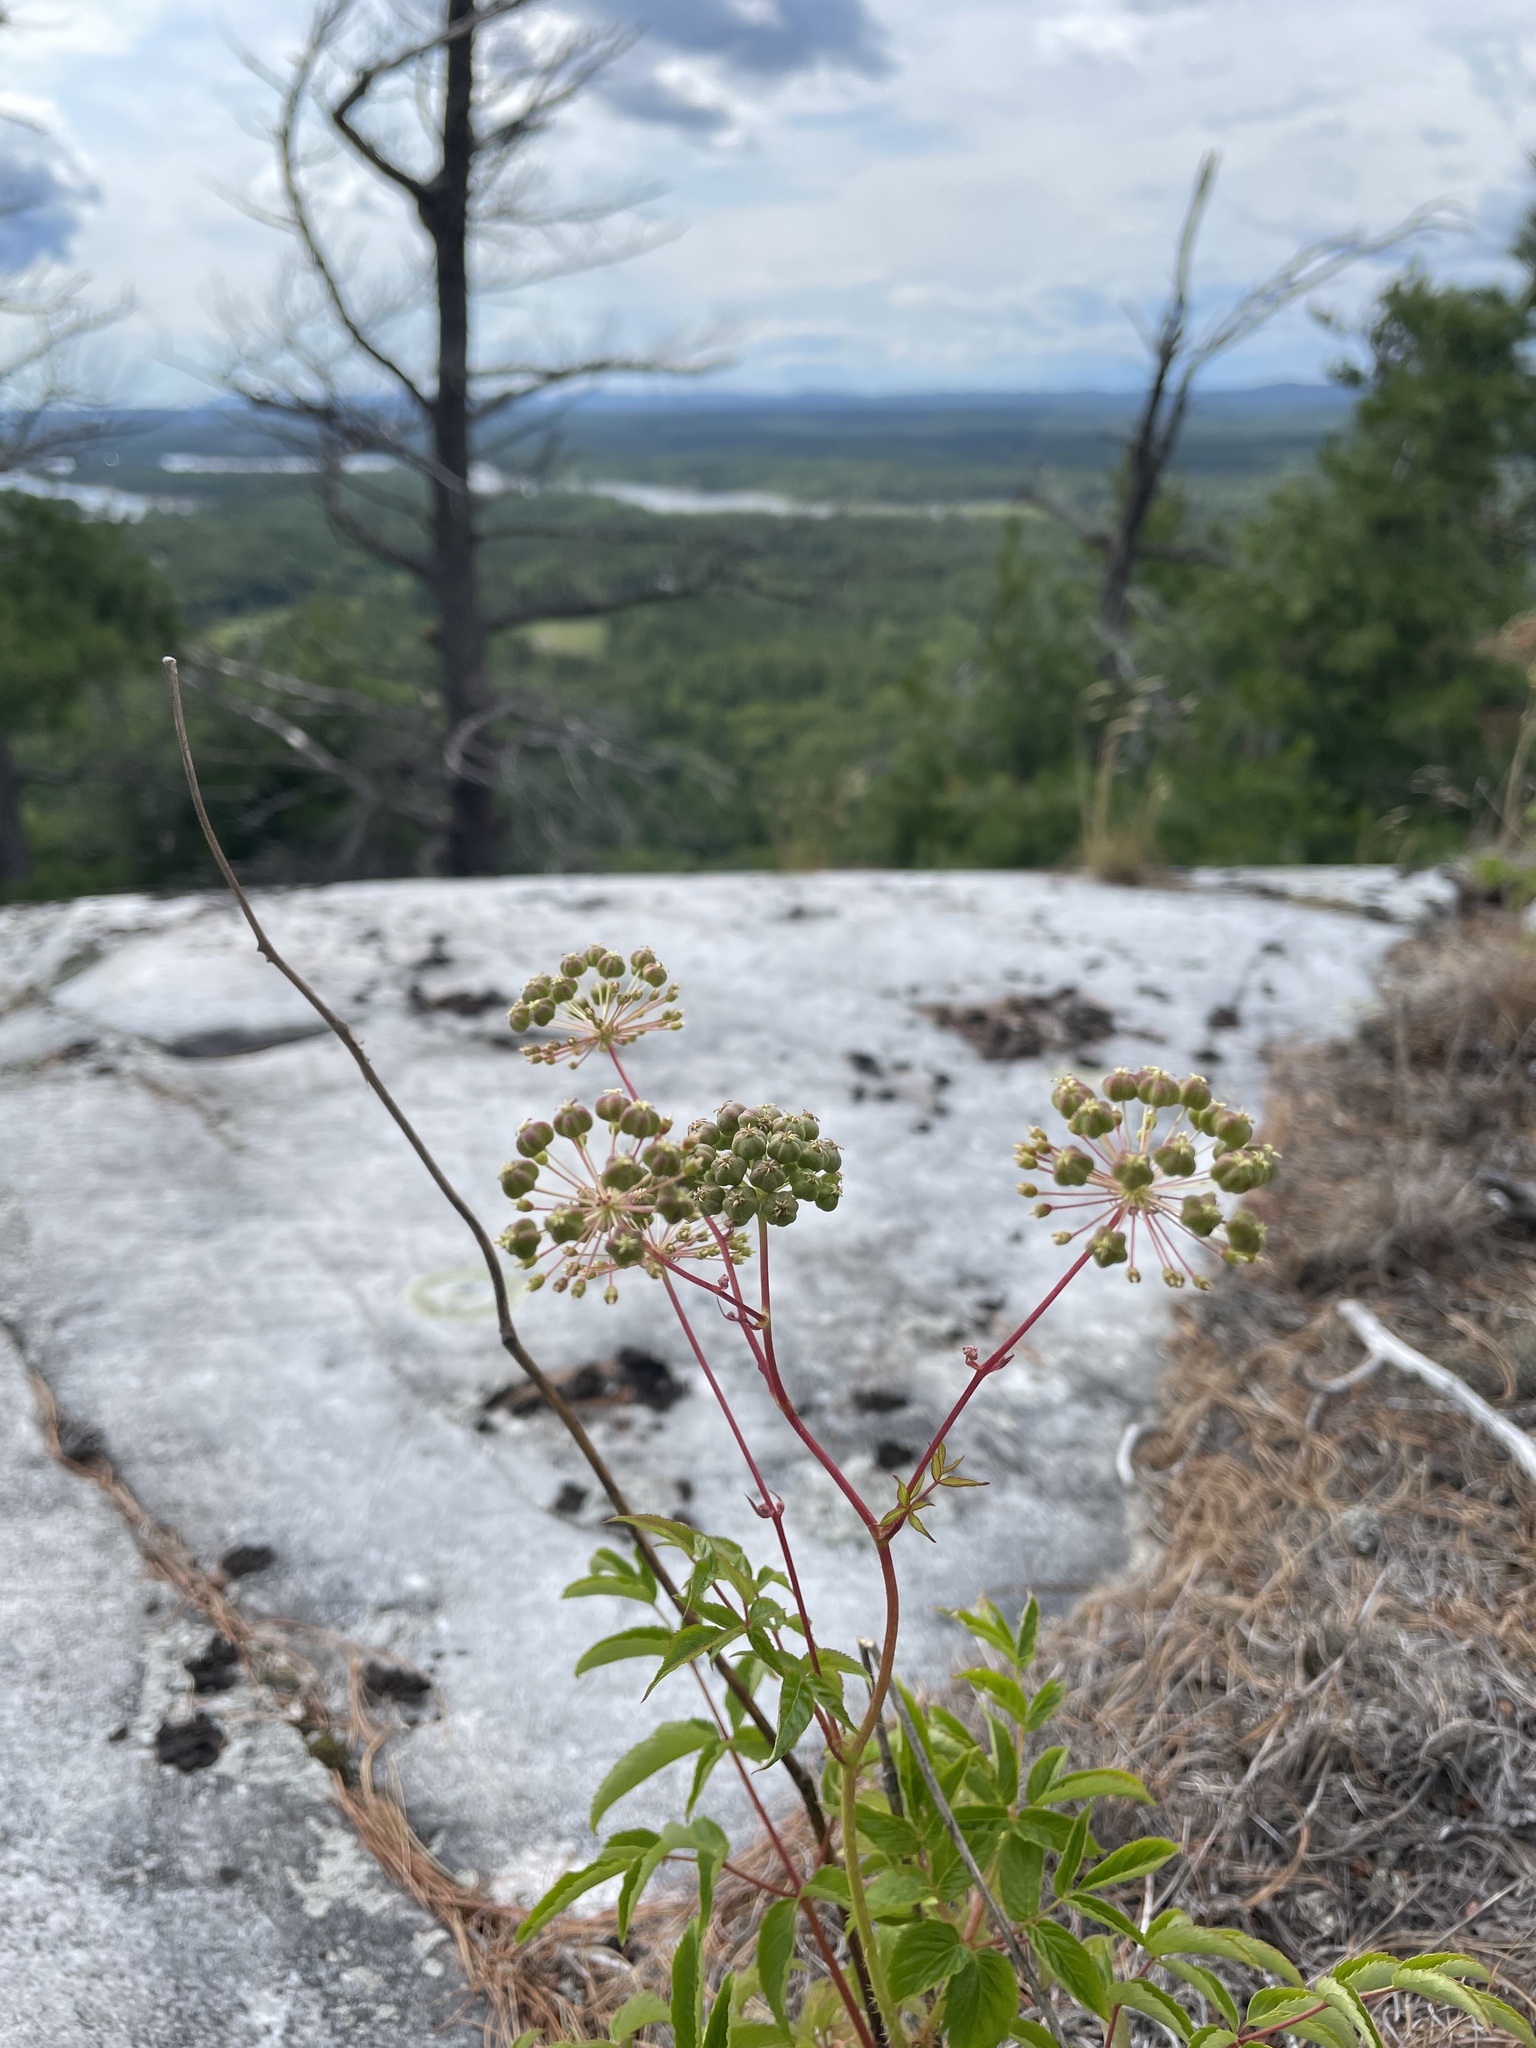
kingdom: Plantae
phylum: Tracheophyta
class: Magnoliopsida
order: Apiales
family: Araliaceae
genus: Aralia
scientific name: Aralia hispida
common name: Bristly sarsaparilla
